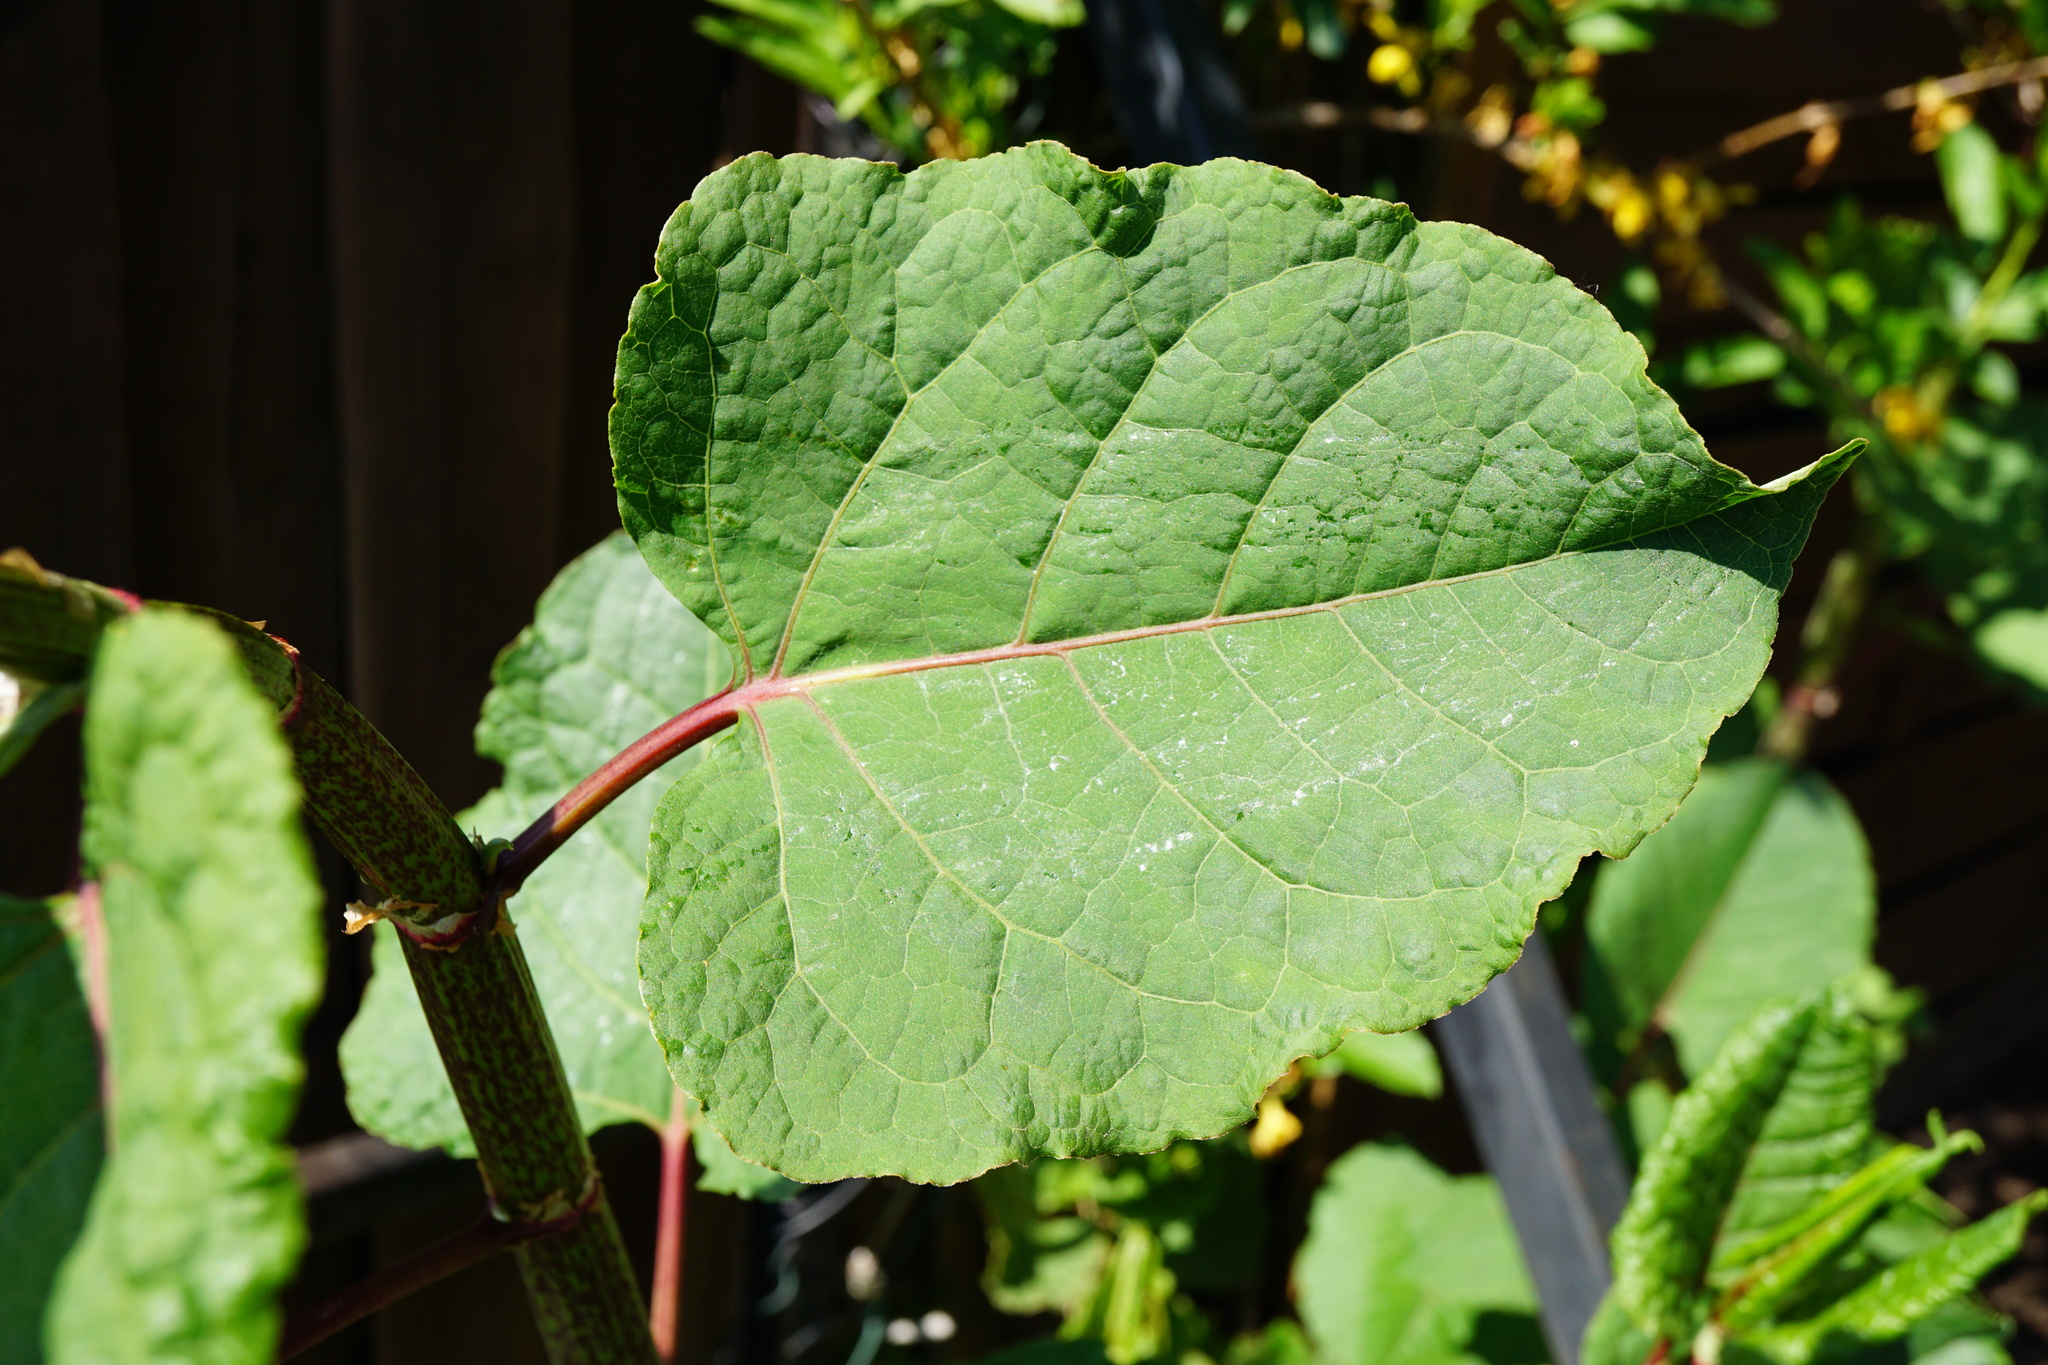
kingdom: Plantae
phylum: Tracheophyta
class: Magnoliopsida
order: Caryophyllales
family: Polygonaceae
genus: Reynoutria
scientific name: Reynoutria bohemica
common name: Bohemian knotweed
